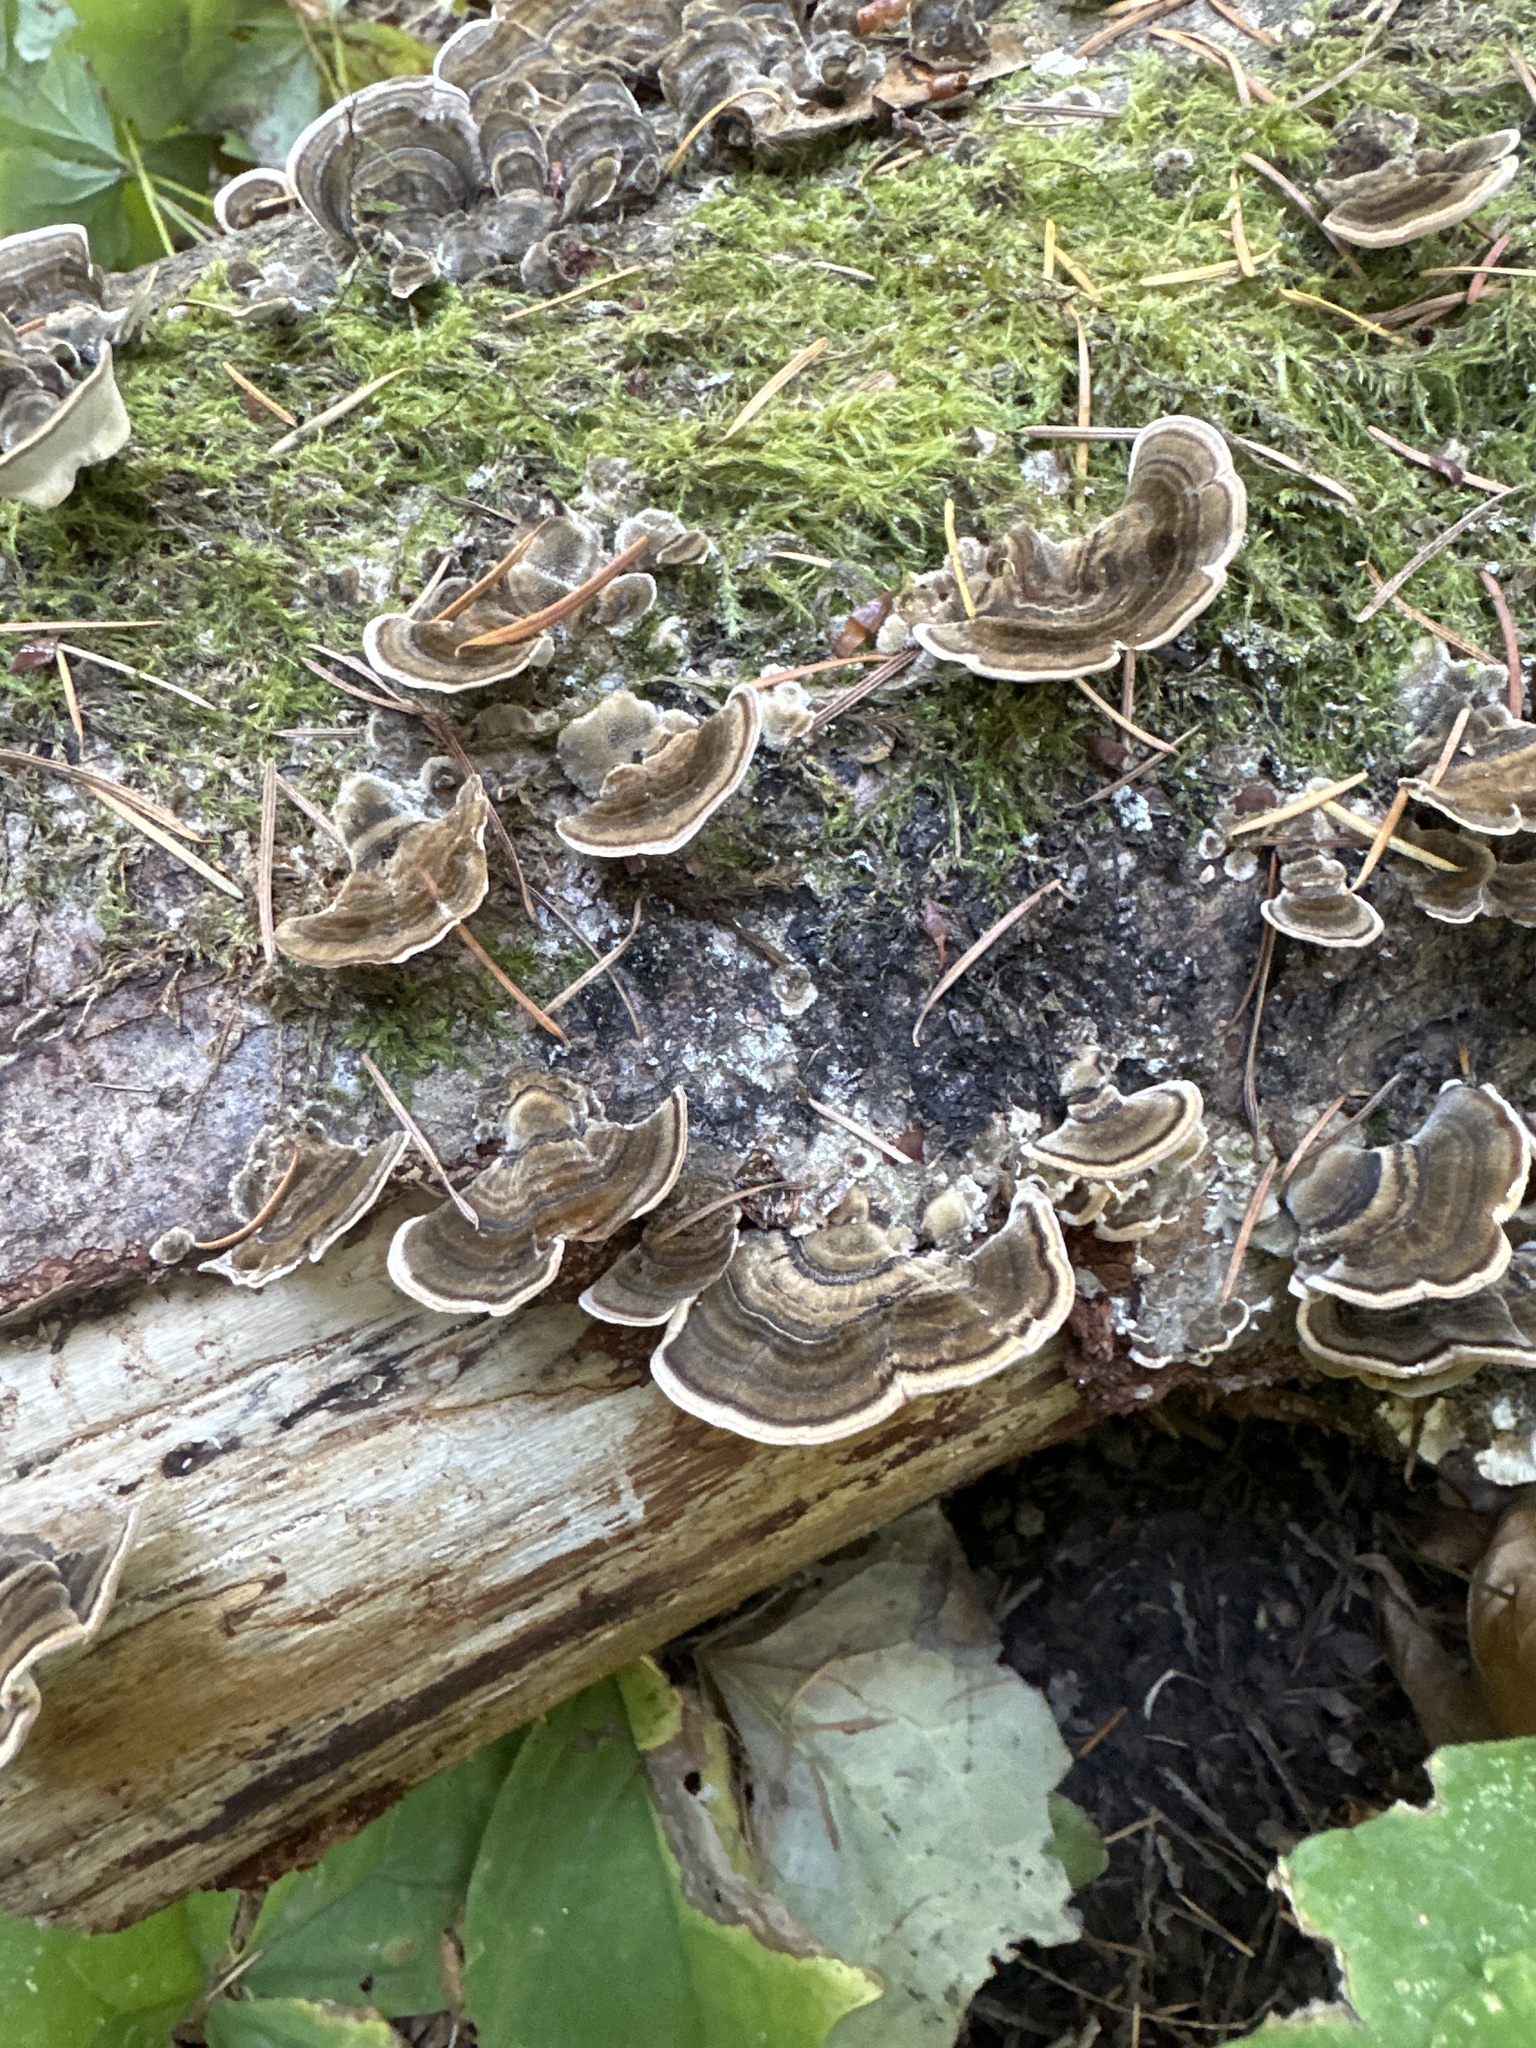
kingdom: Fungi
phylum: Basidiomycota
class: Agaricomycetes
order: Polyporales
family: Polyporaceae
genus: Trametes
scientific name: Trametes versicolor
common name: Turkeytail
